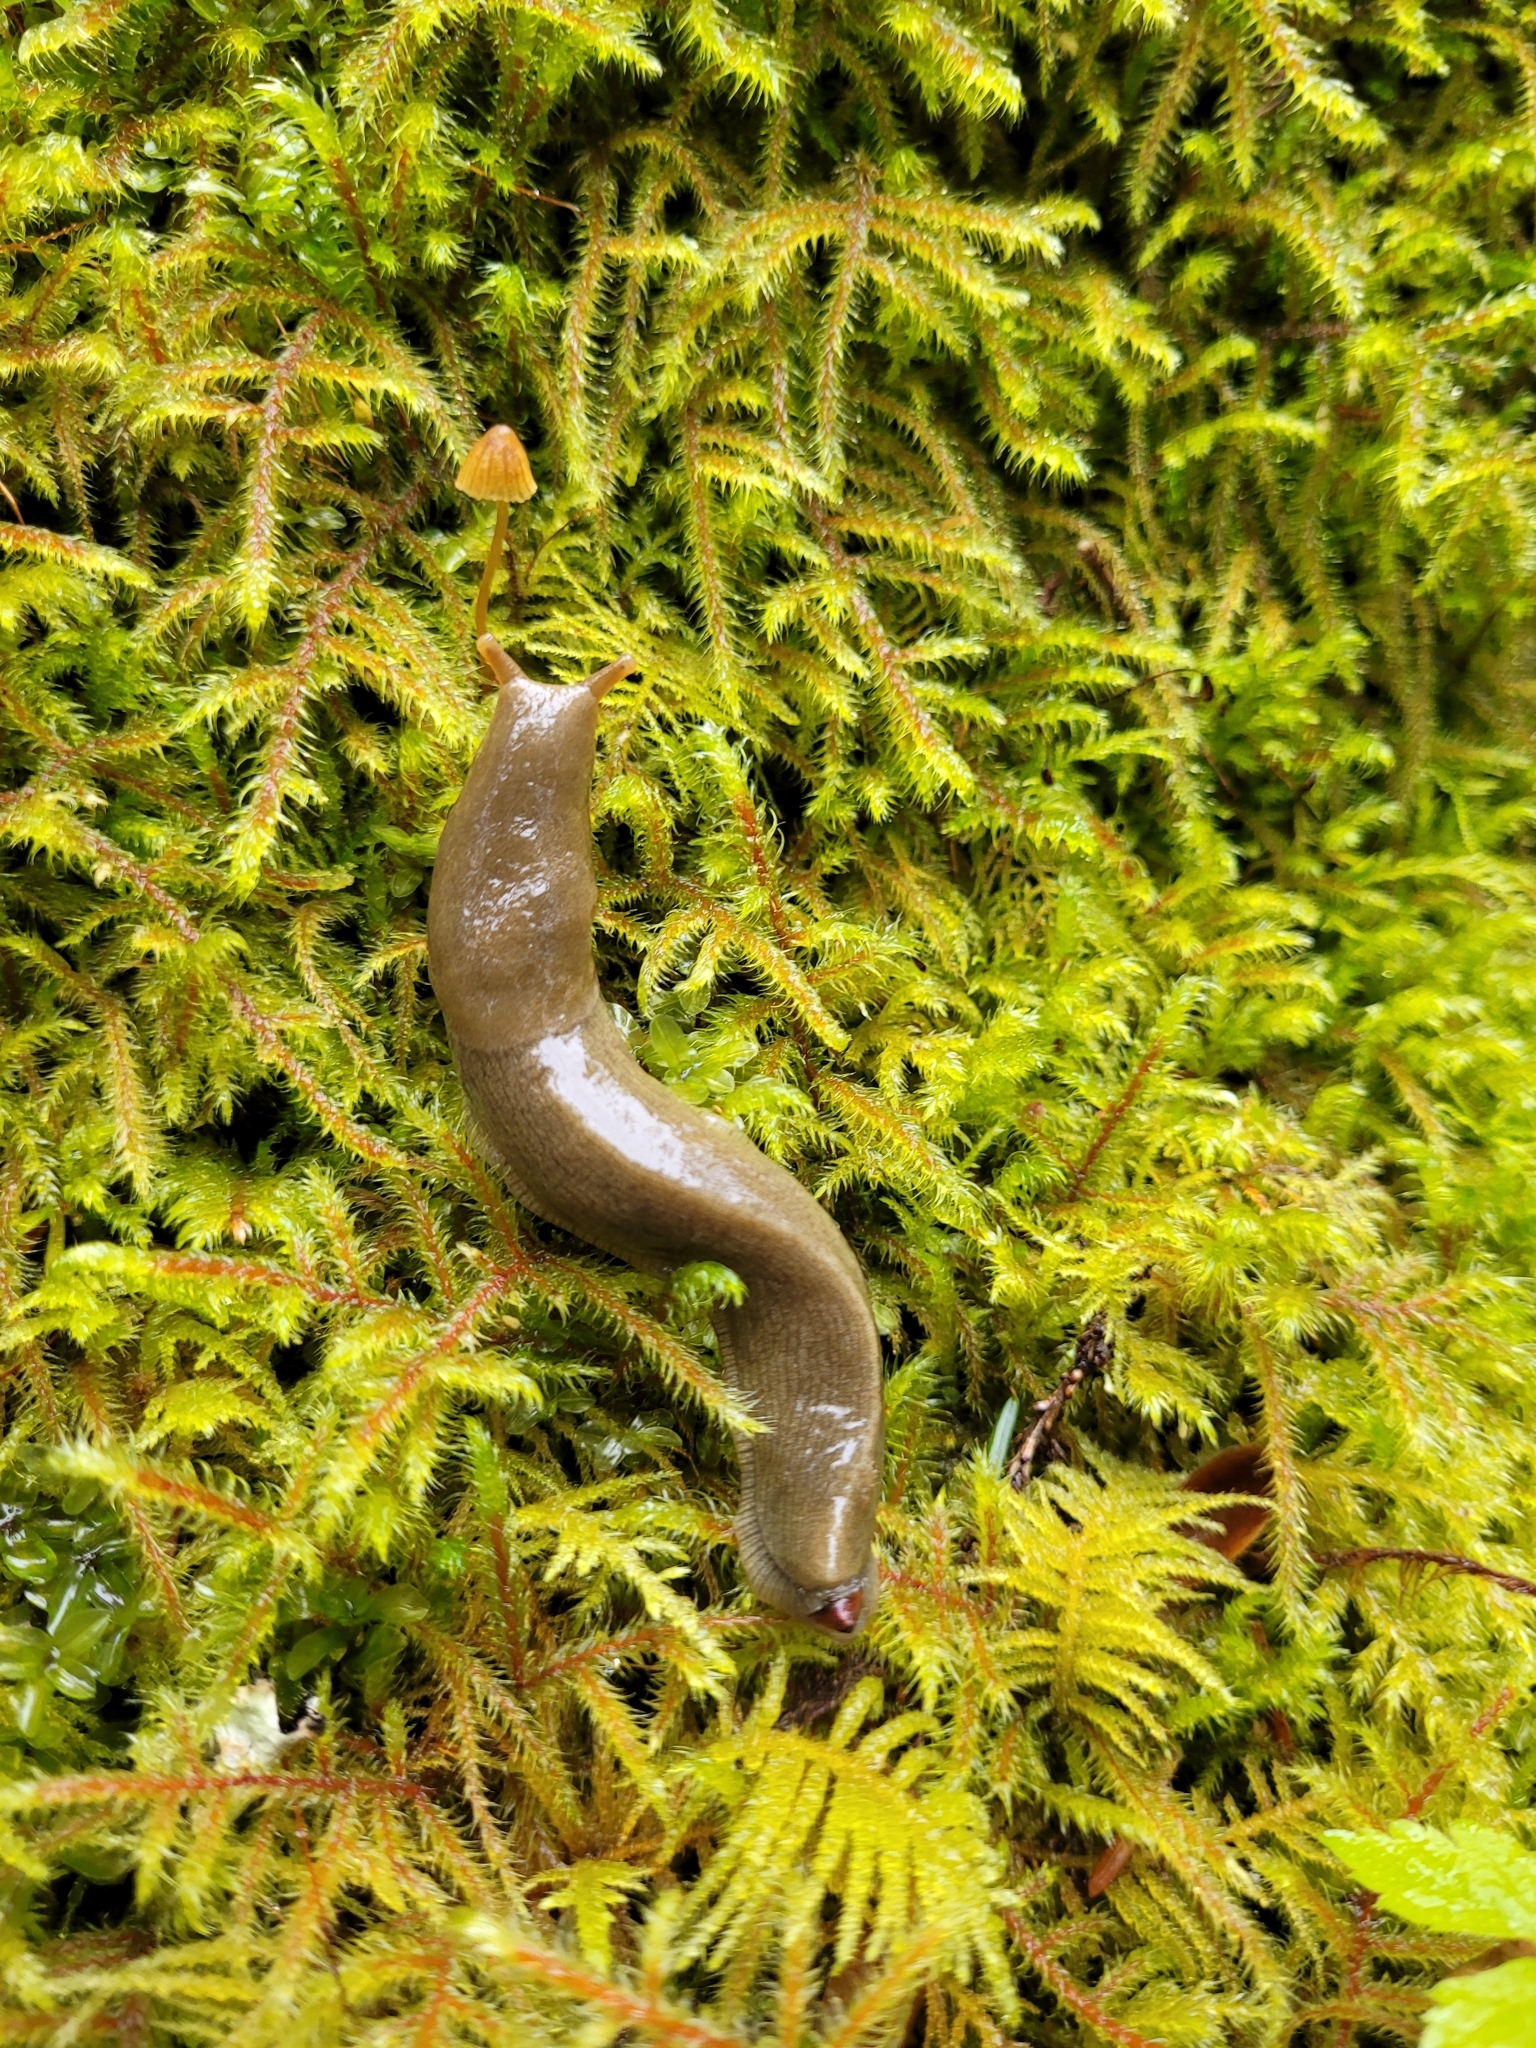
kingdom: Animalia
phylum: Mollusca
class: Gastropoda
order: Stylommatophora
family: Ariolimacidae
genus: Ariolimax
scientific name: Ariolimax columbianus
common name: Pacific banana slug
